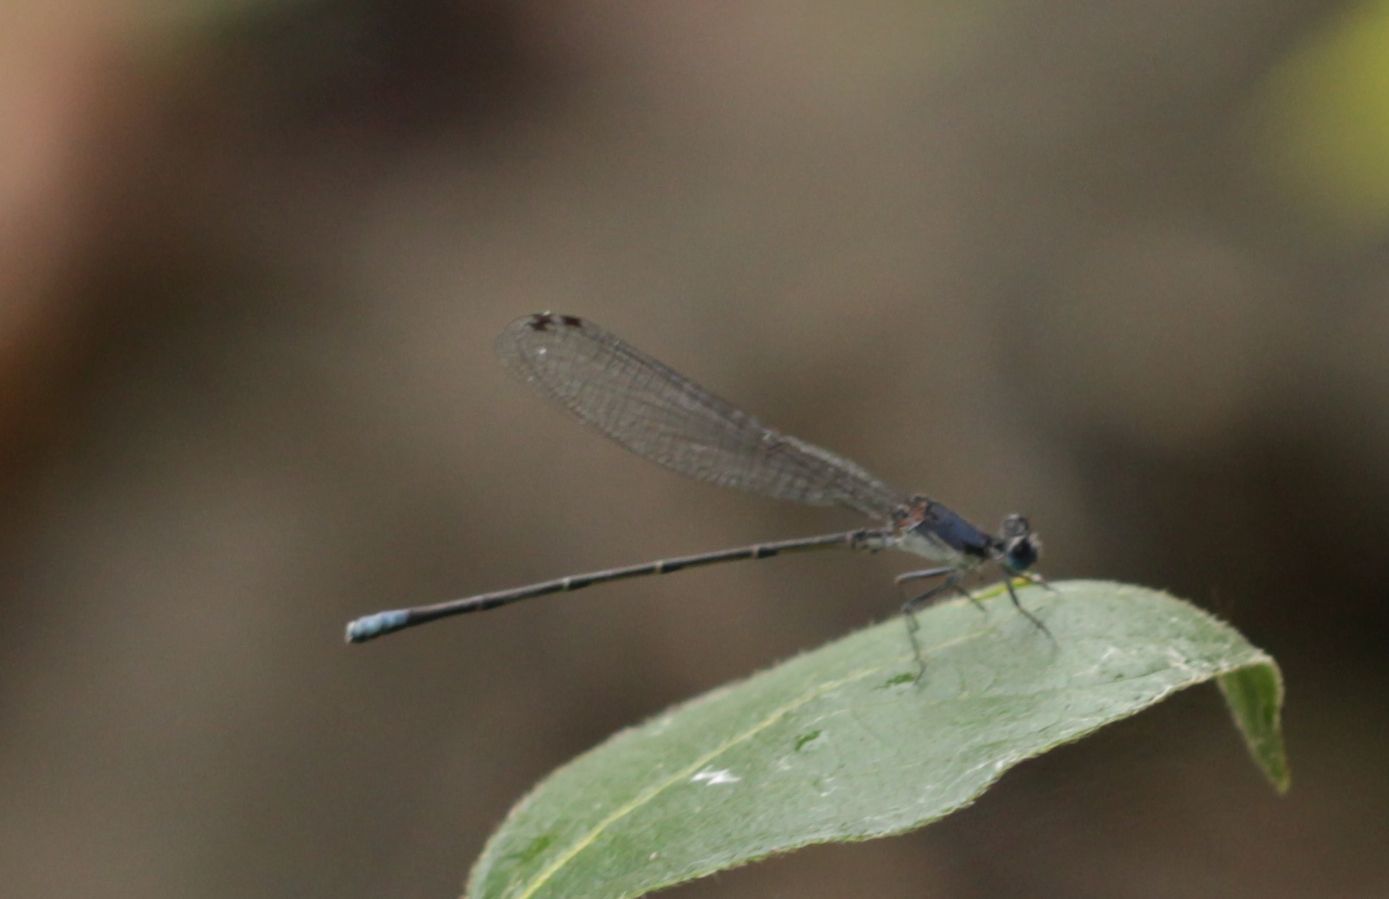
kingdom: Animalia
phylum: Arthropoda
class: Insecta
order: Odonata
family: Coenagrionidae
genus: Argia
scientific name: Argia apicalis
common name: Blue-fronted dancer
